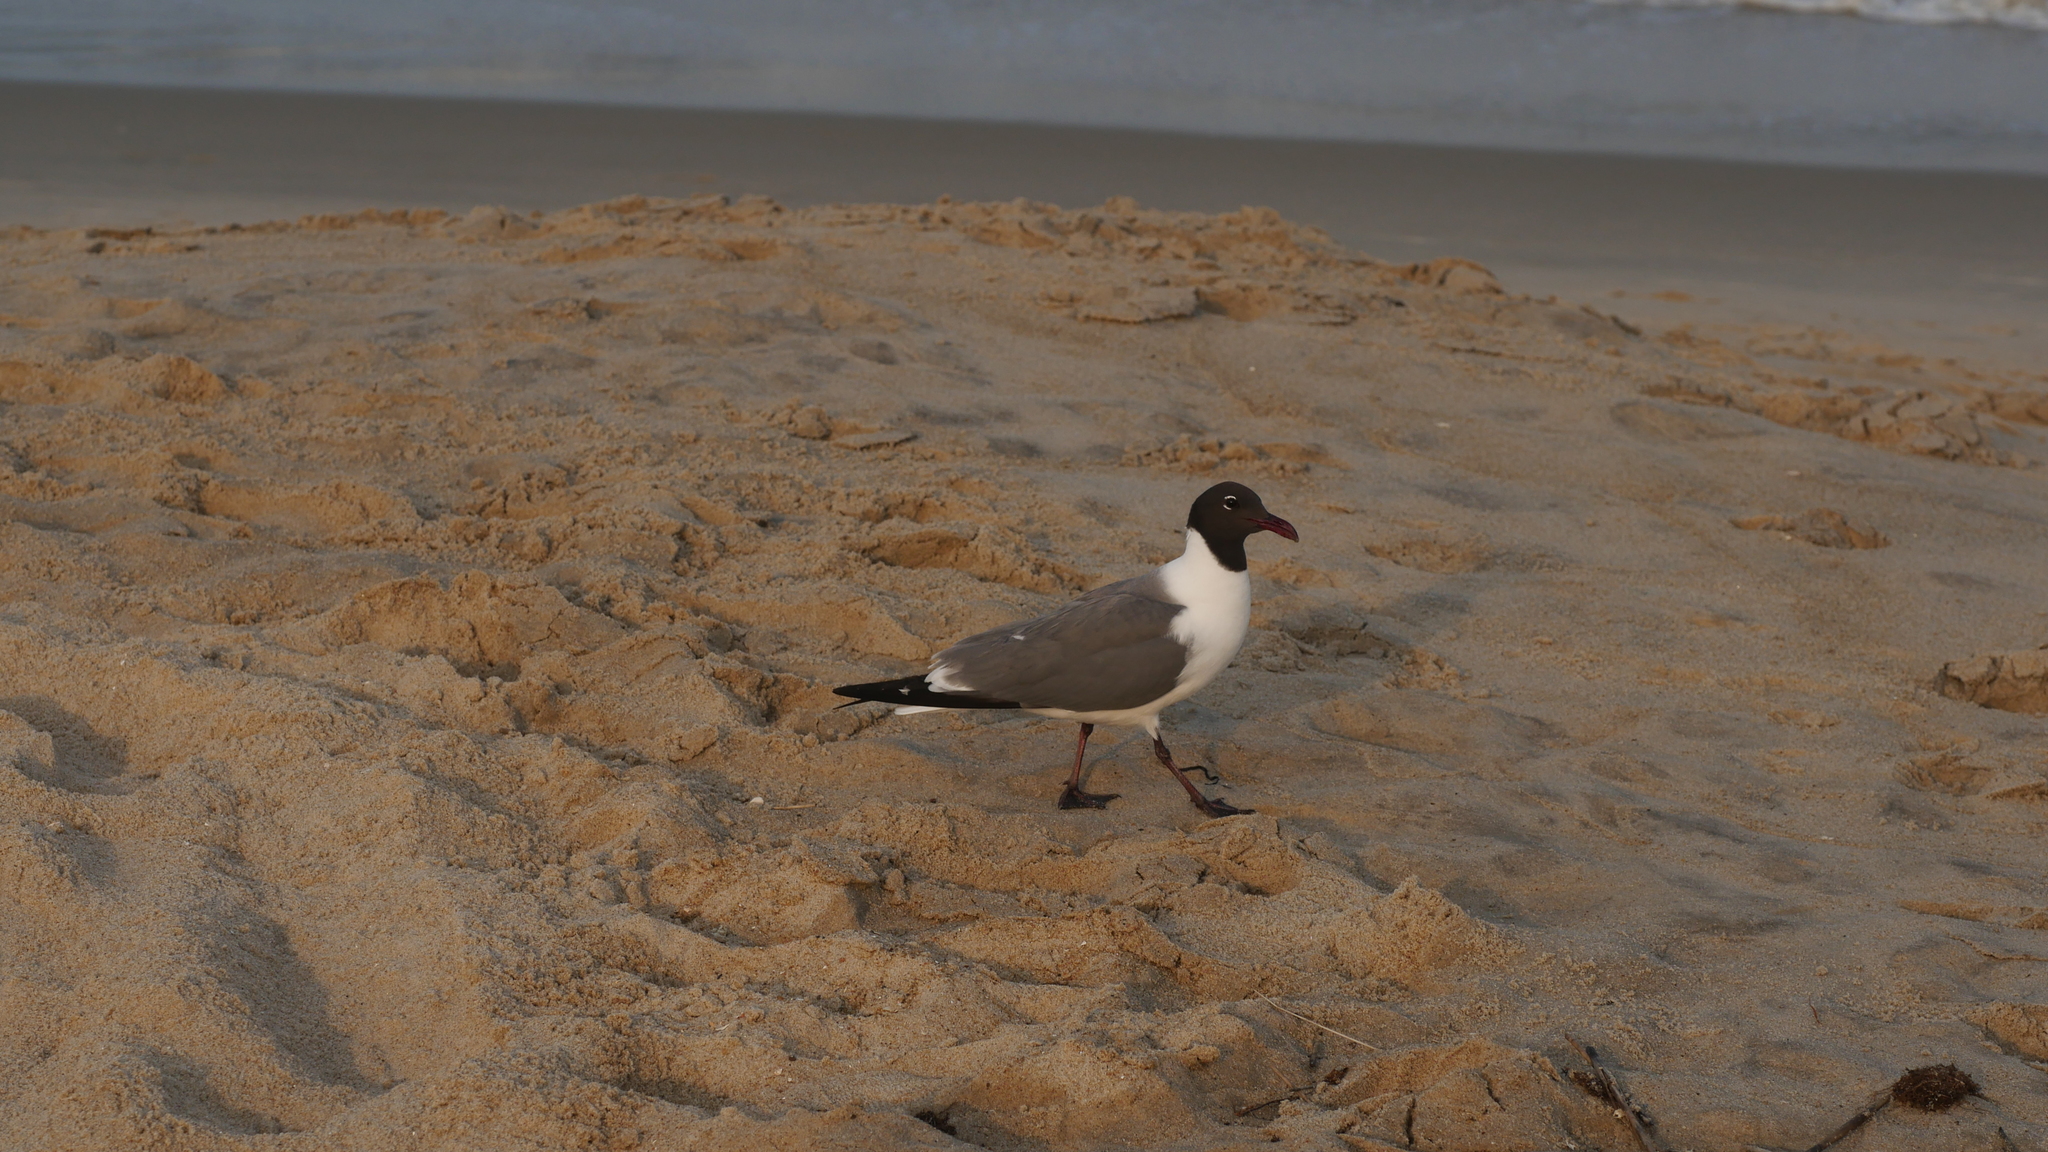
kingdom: Animalia
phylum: Chordata
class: Aves
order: Charadriiformes
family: Laridae
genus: Leucophaeus
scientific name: Leucophaeus atricilla
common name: Laughing gull
